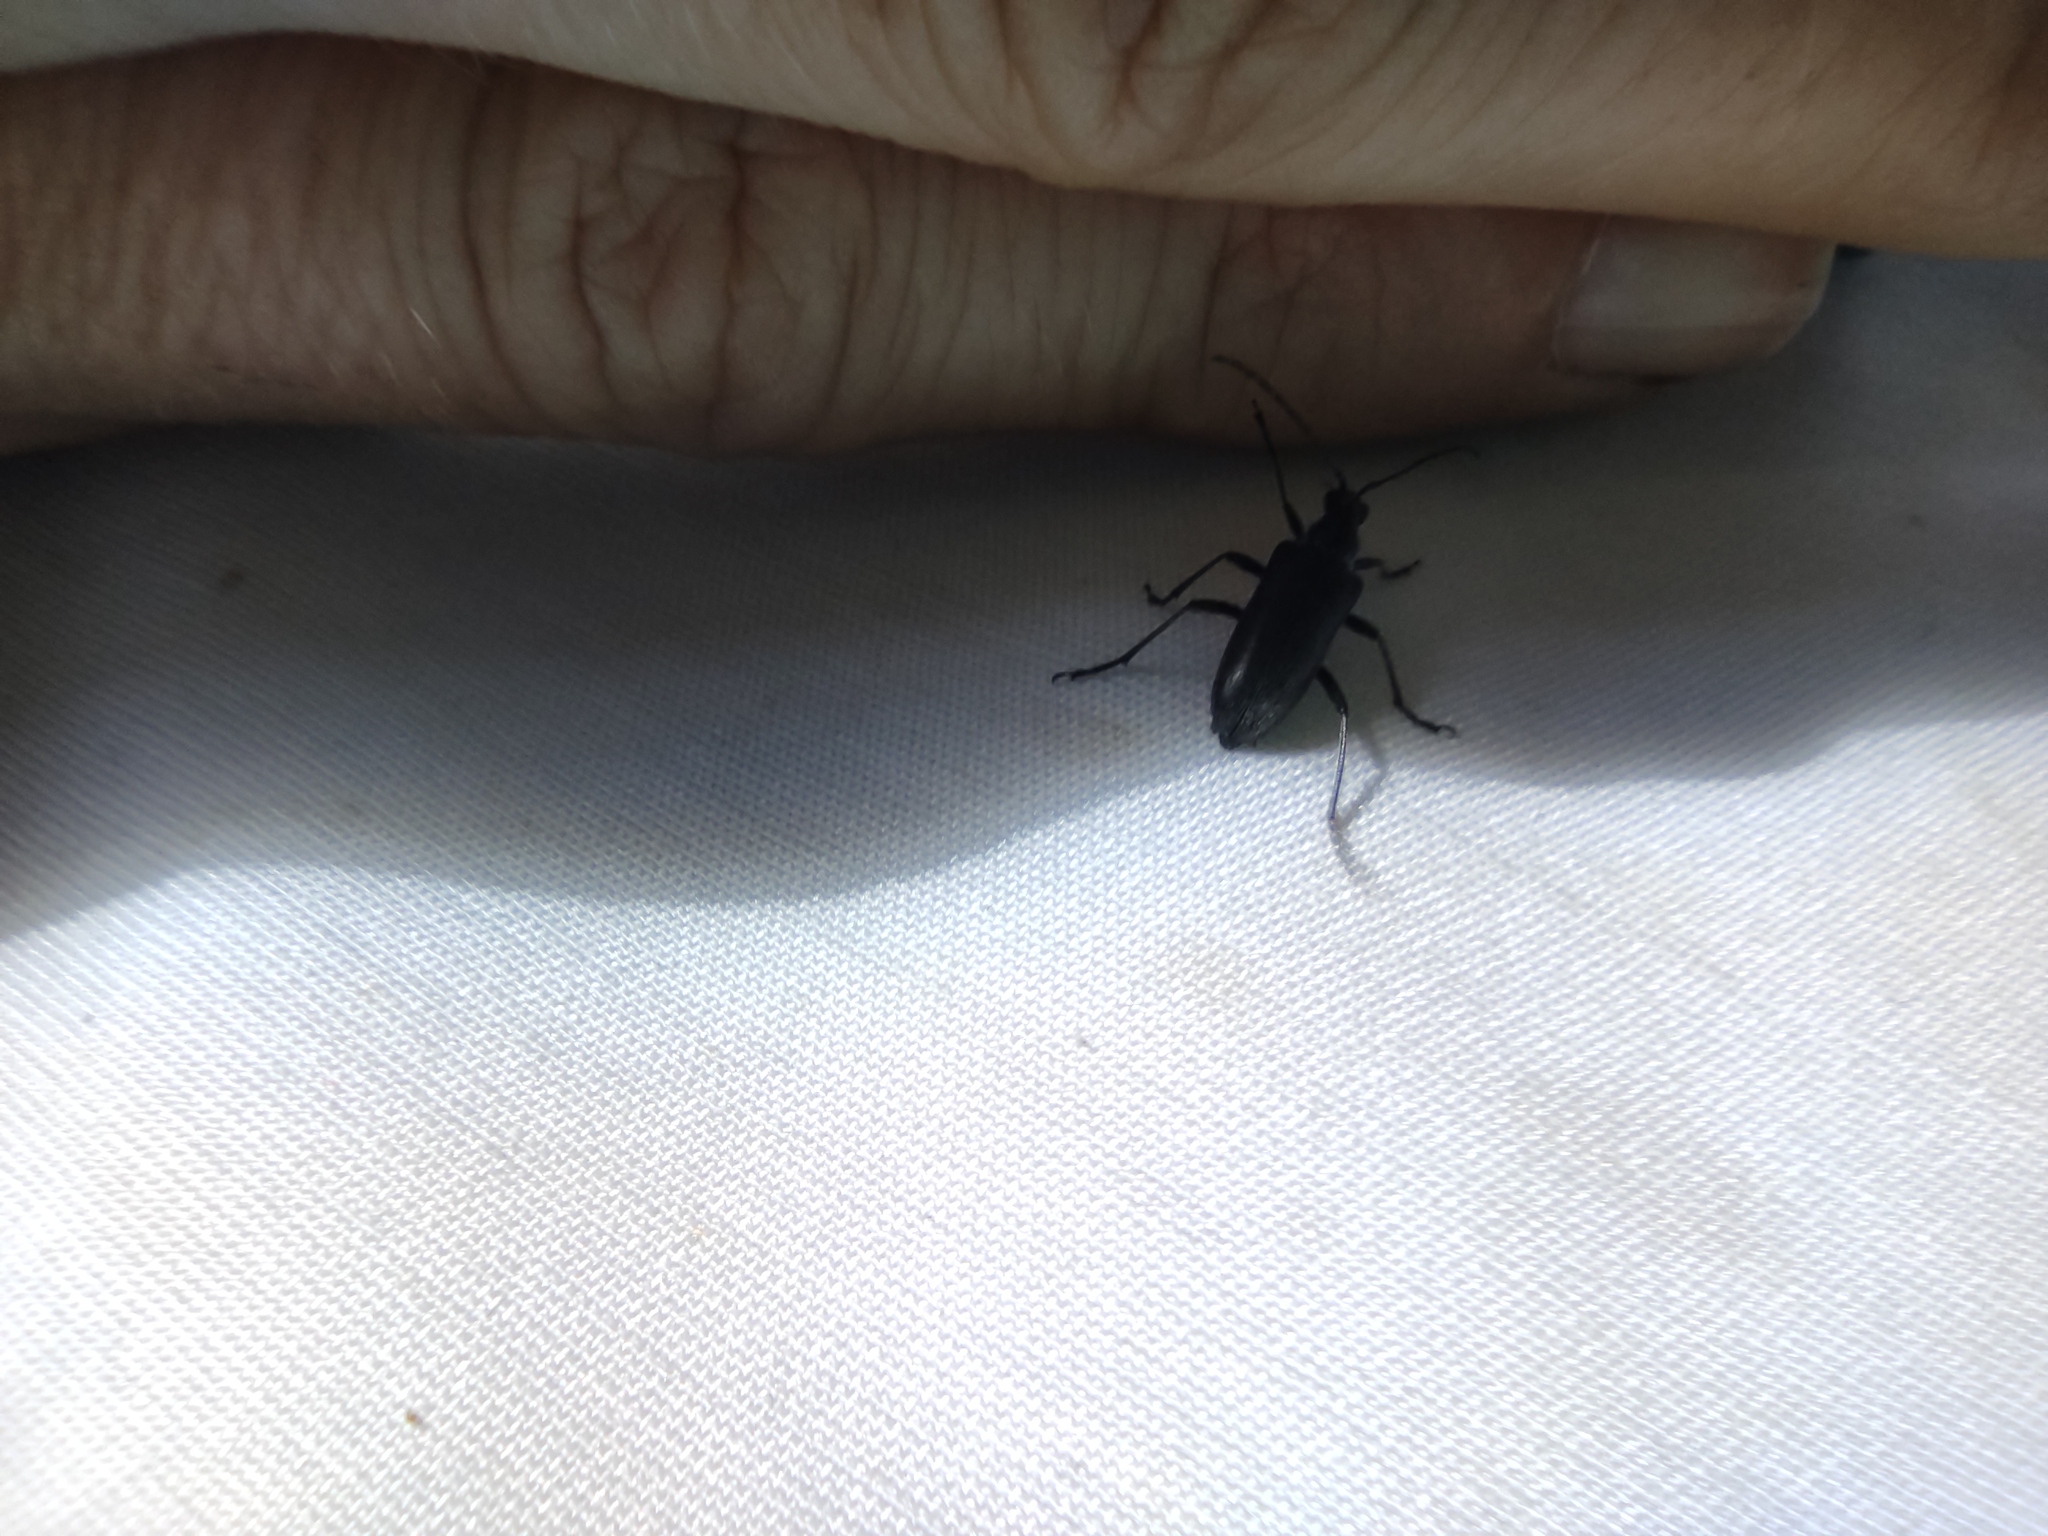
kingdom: Animalia
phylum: Arthropoda
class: Insecta
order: Coleoptera
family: Cerambycidae
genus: Acmaeops
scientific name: Acmaeops septentrionis
